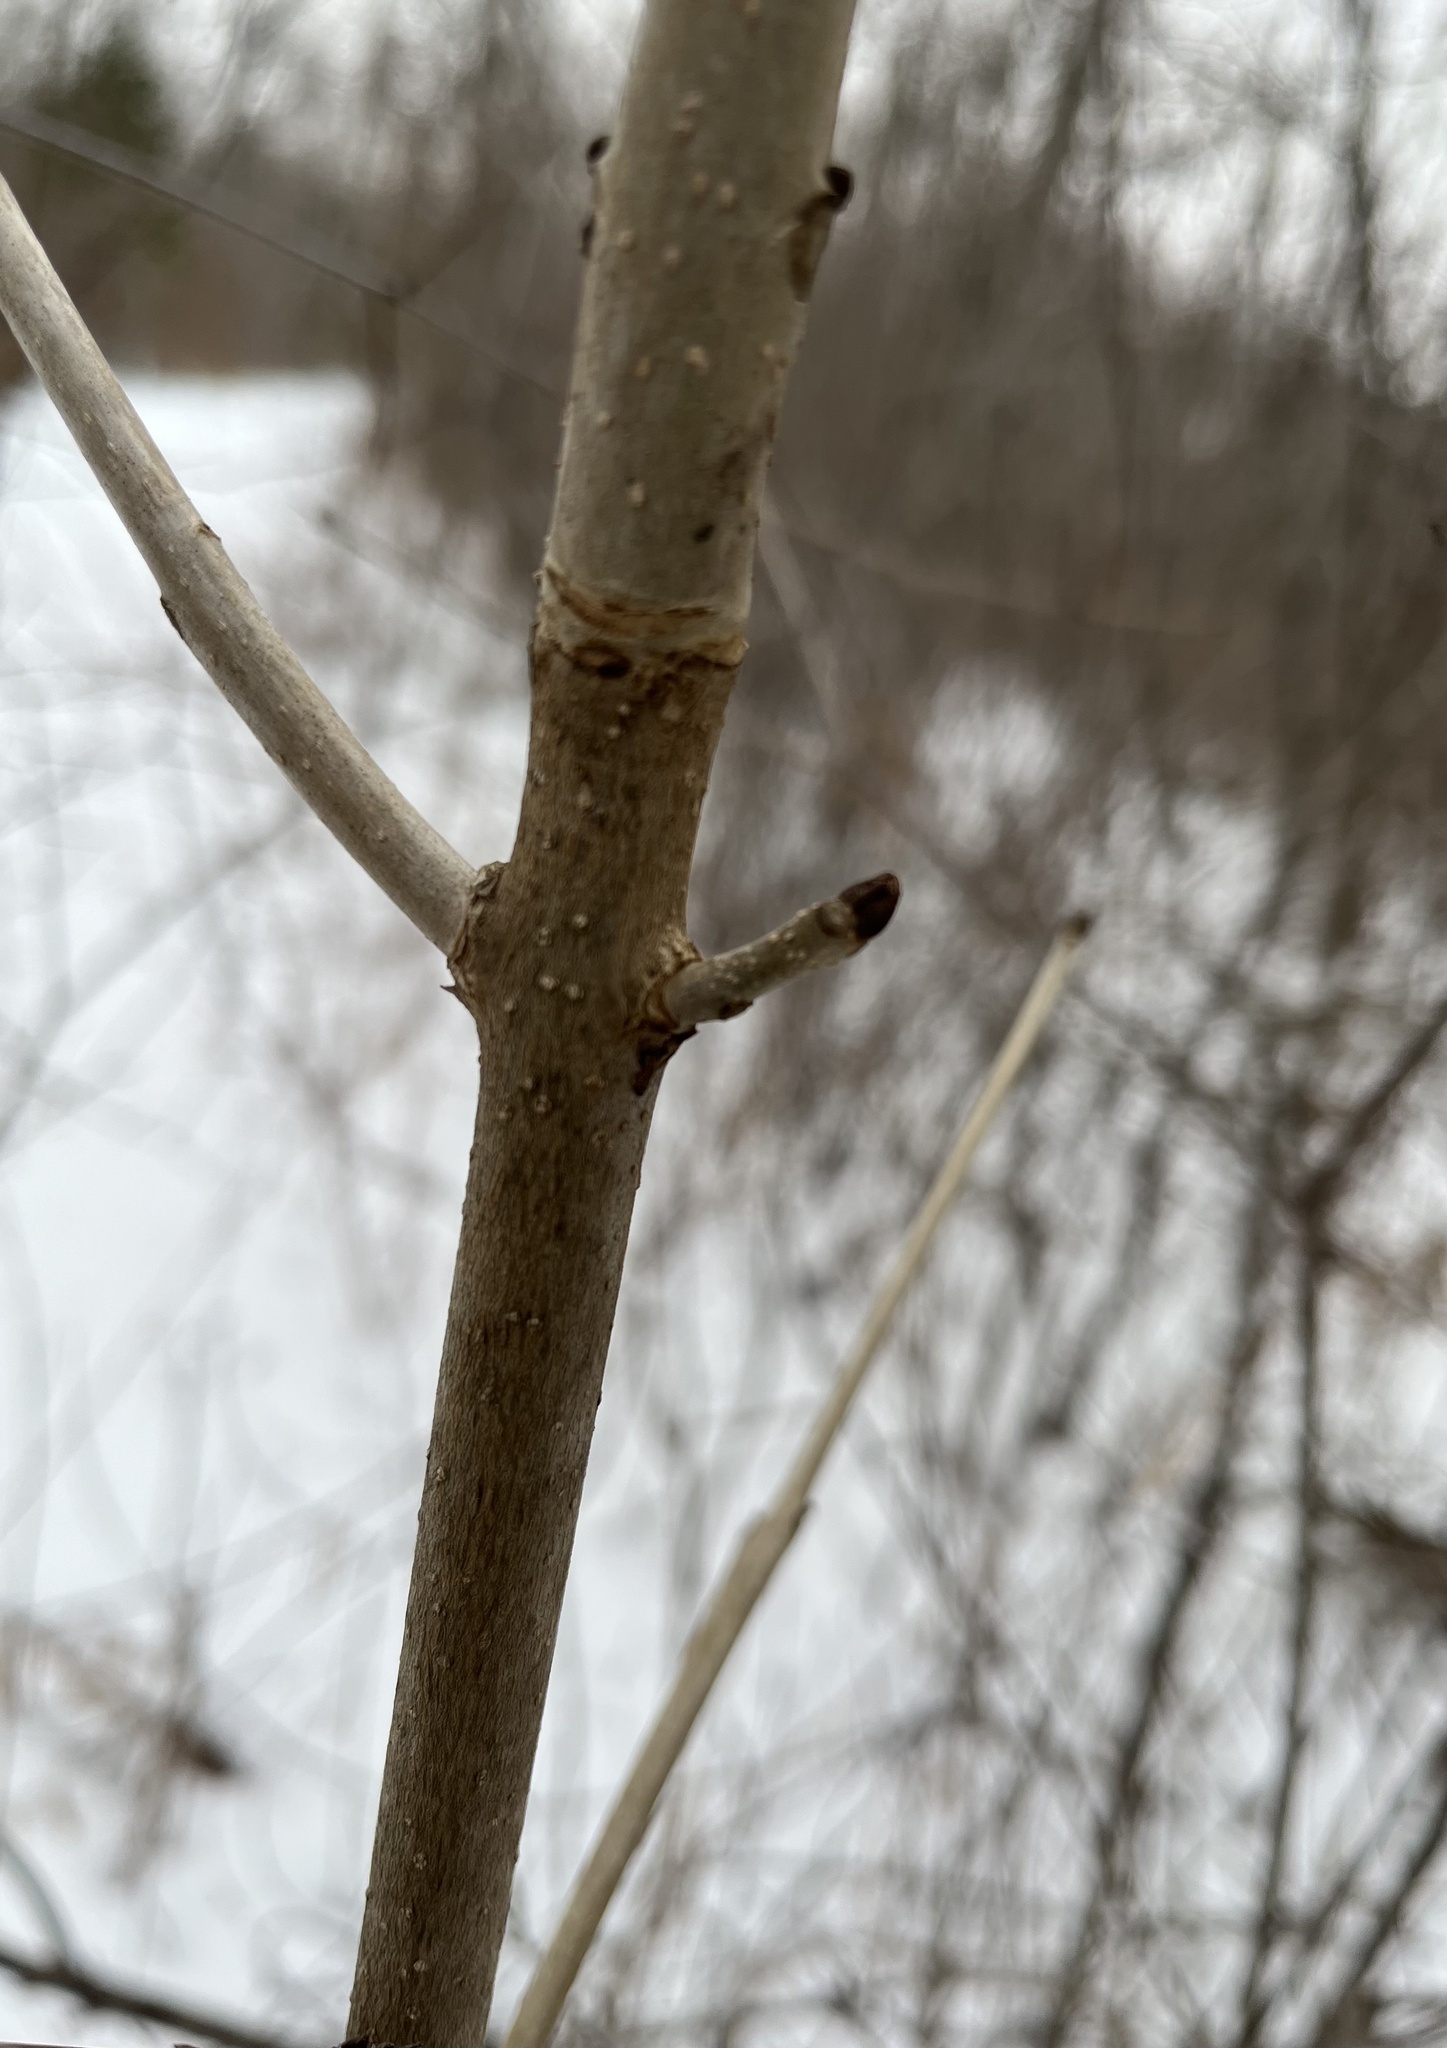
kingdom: Plantae
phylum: Tracheophyta
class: Magnoliopsida
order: Lamiales
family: Oleaceae
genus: Fraxinus
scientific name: Fraxinus nigra
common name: Black ash
